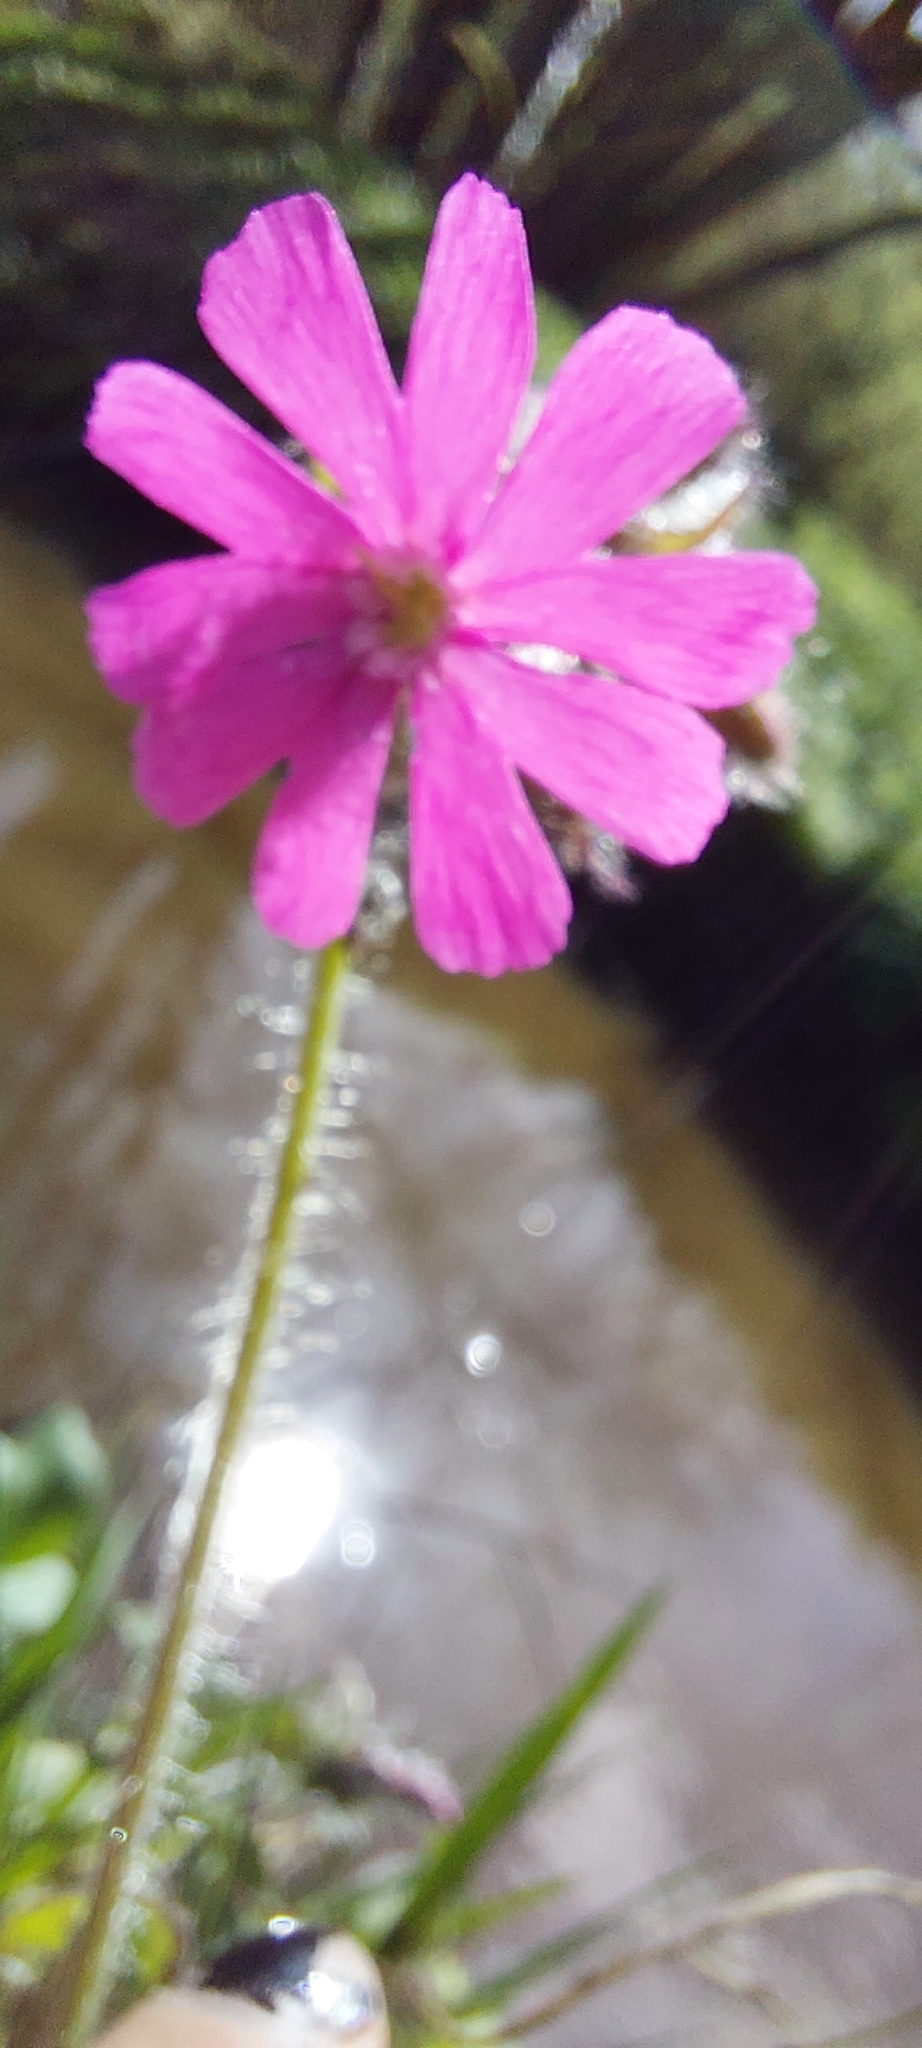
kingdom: Plantae
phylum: Tracheophyta
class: Magnoliopsida
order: Caryophyllales
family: Caryophyllaceae
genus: Silene
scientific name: Silene dioica
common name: Red campion
